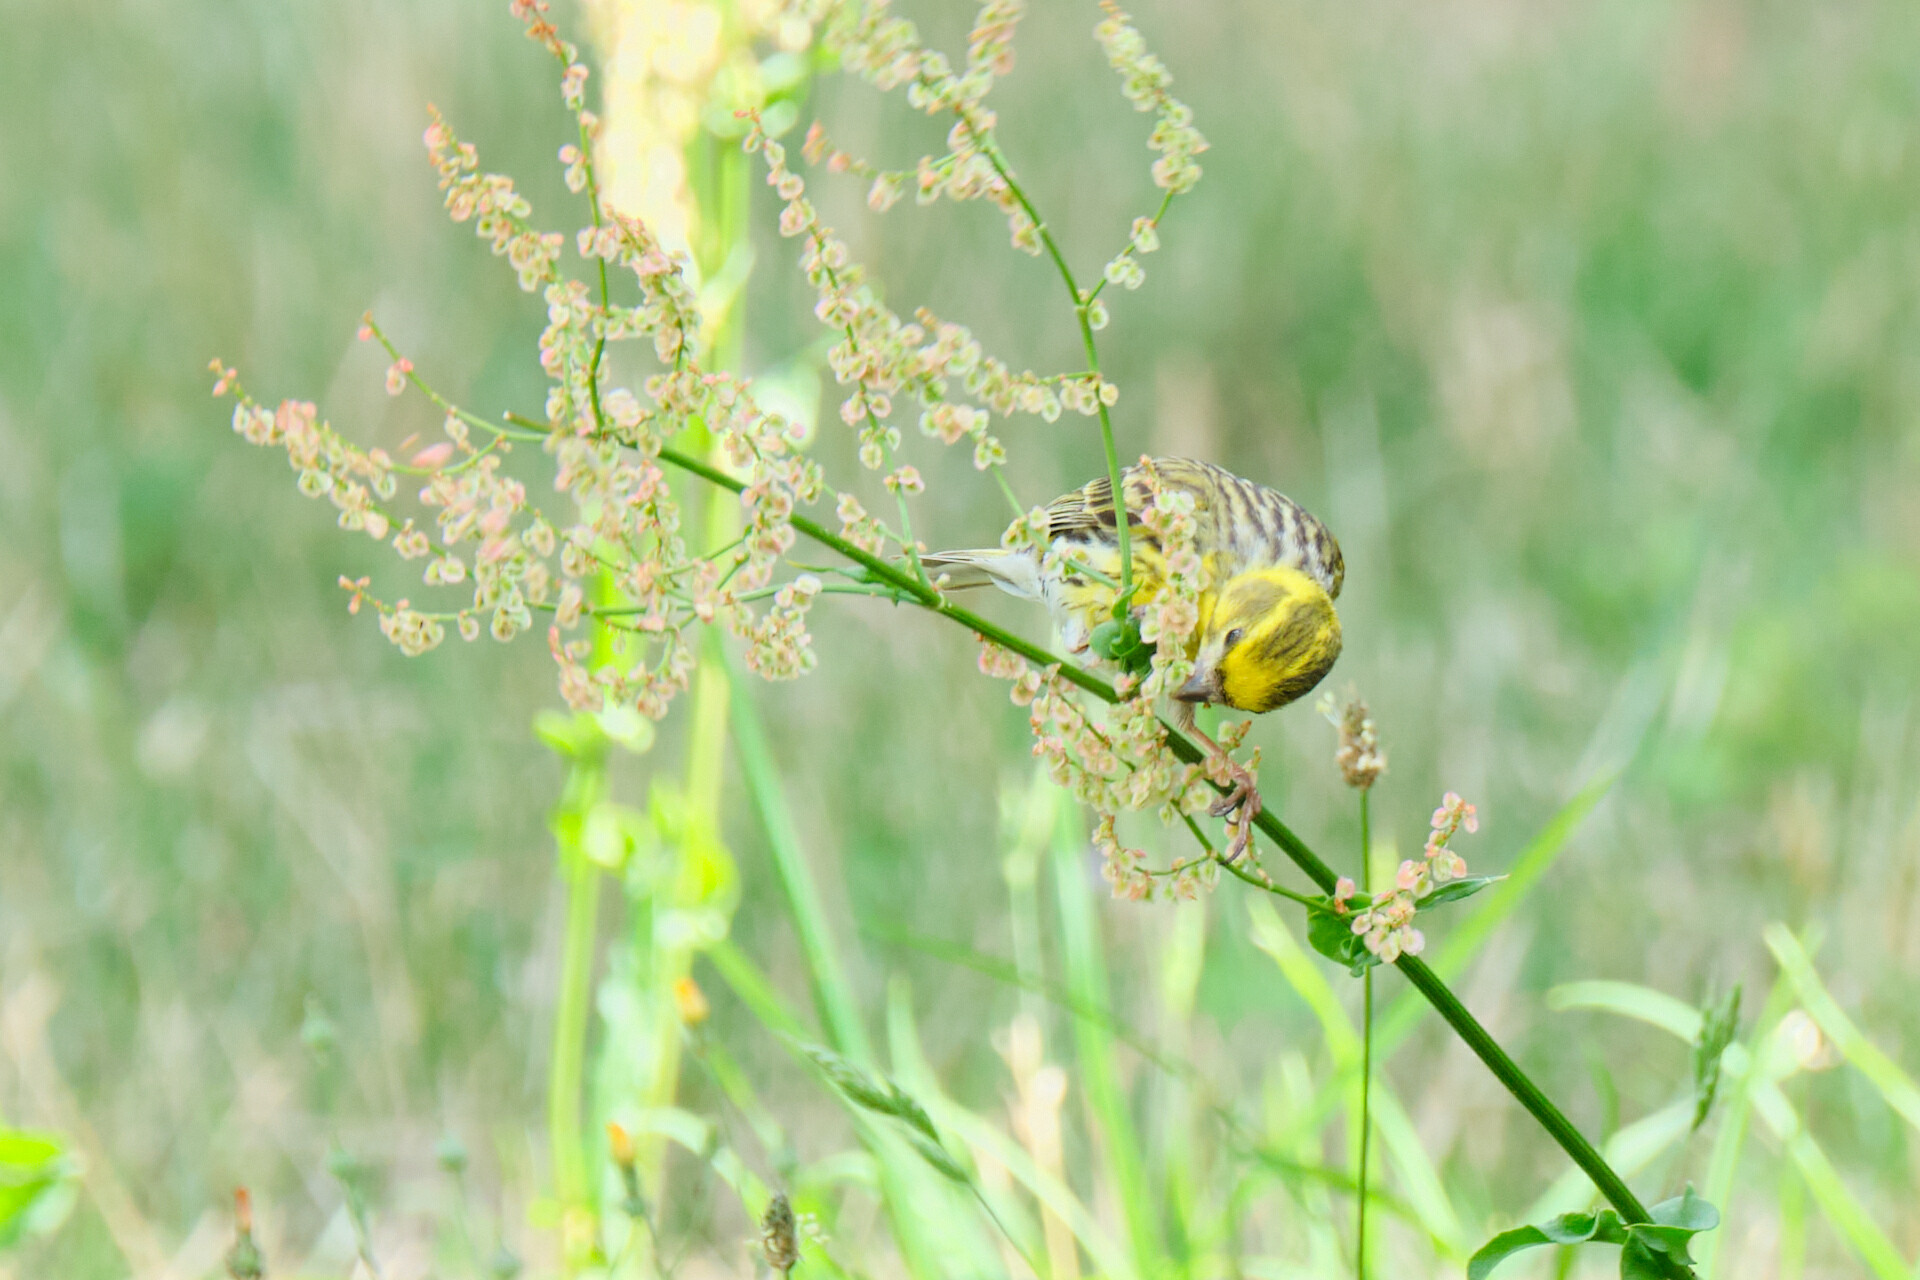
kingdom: Animalia
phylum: Chordata
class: Aves
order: Passeriformes
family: Fringillidae
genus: Serinus
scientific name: Serinus serinus
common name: European serin
